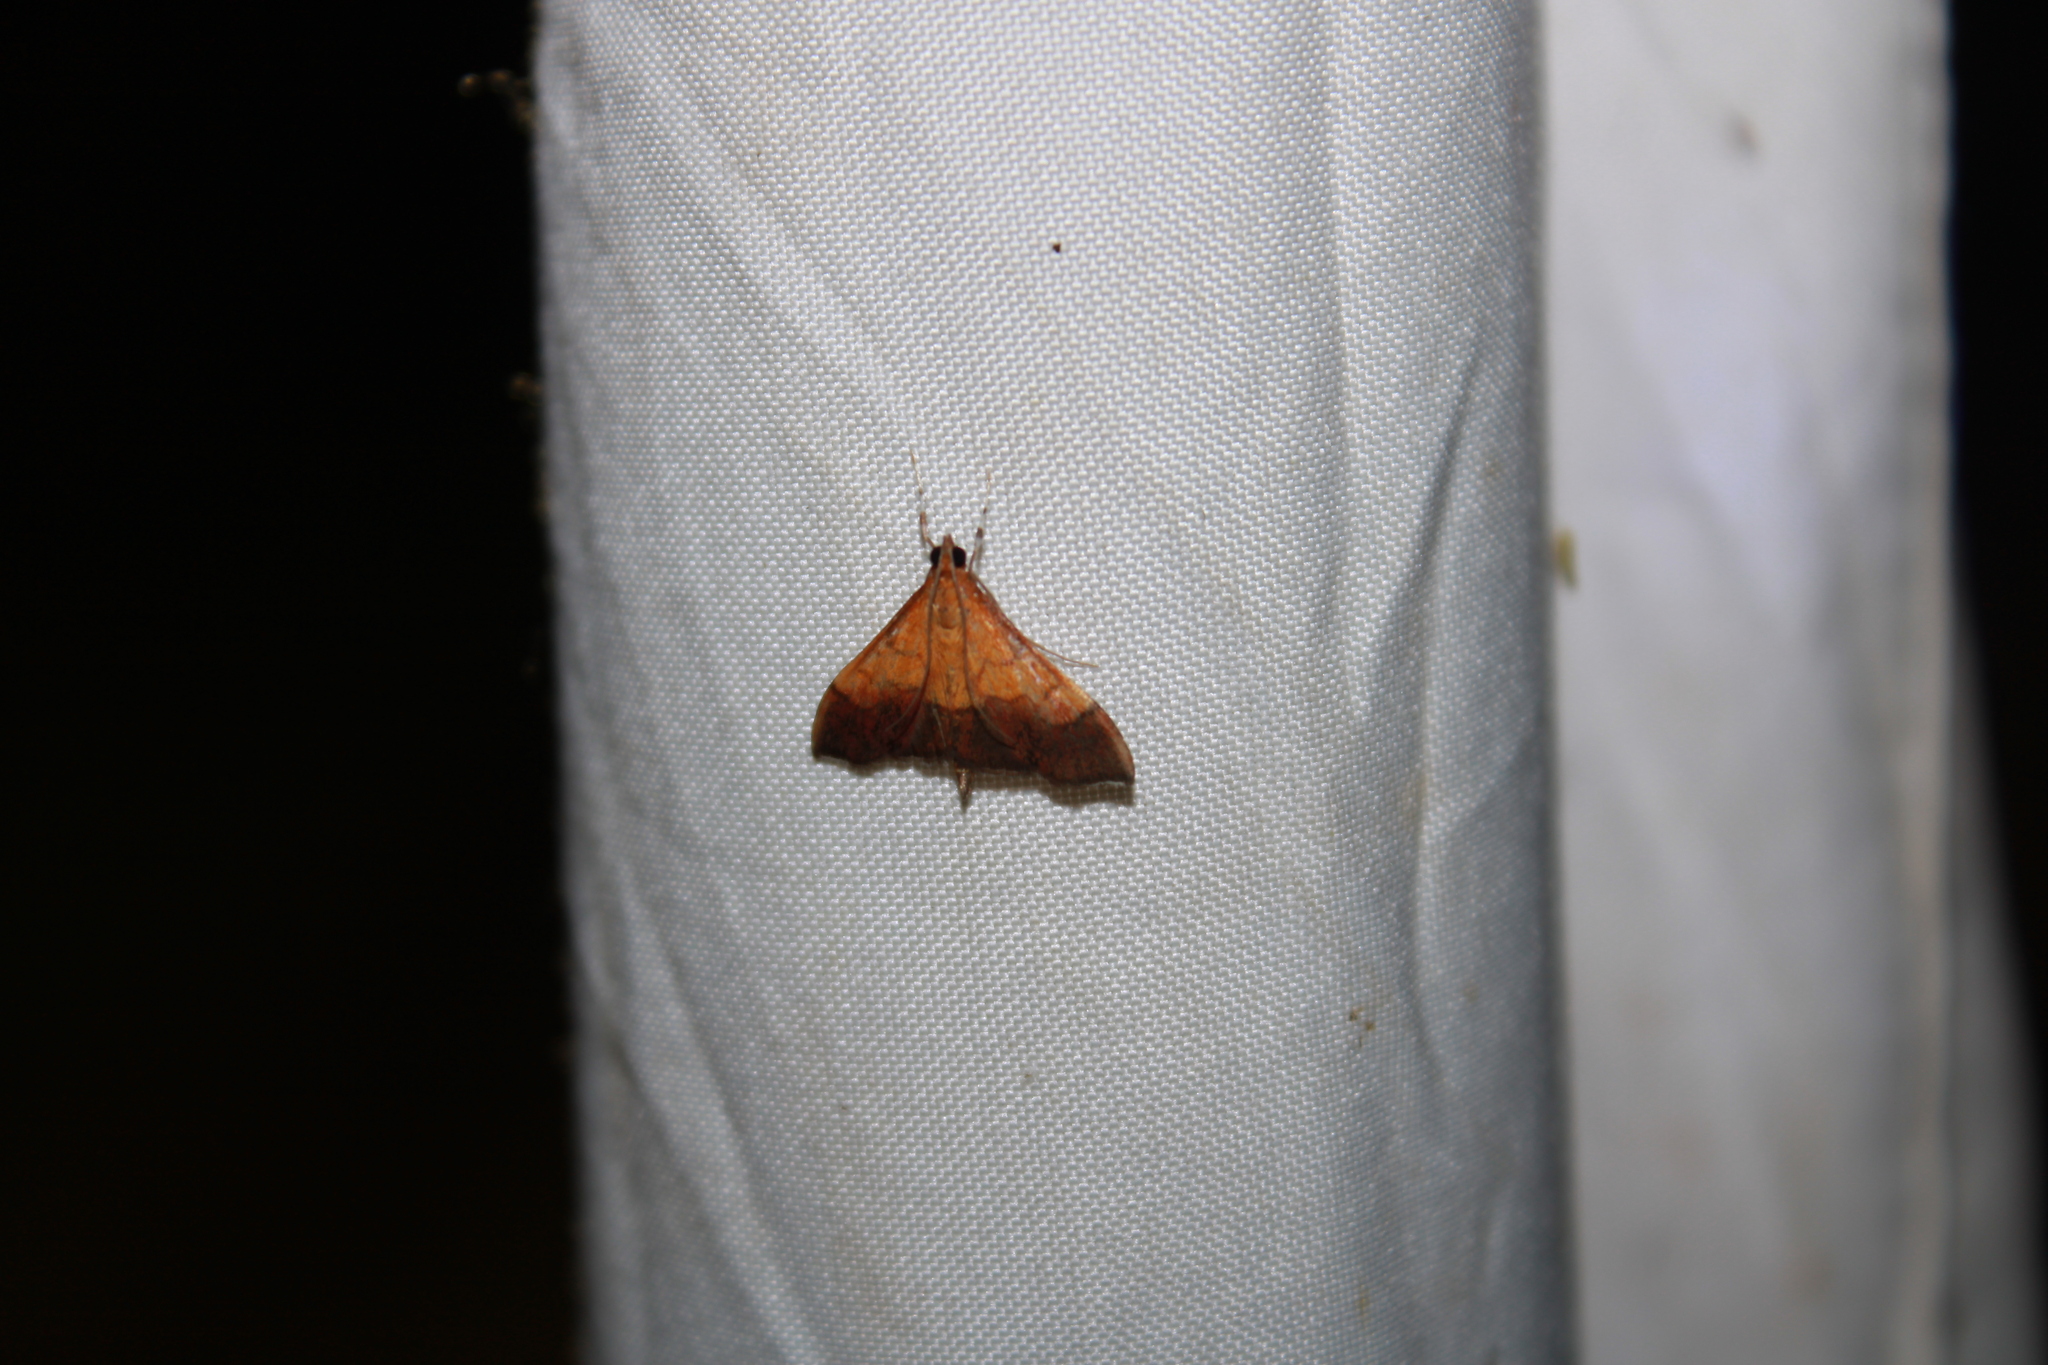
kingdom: Animalia
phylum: Arthropoda
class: Insecta
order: Lepidoptera
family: Crambidae
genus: Pyrausta
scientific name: Pyrausta bicoloralis
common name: Bicolored pyrausta moth
